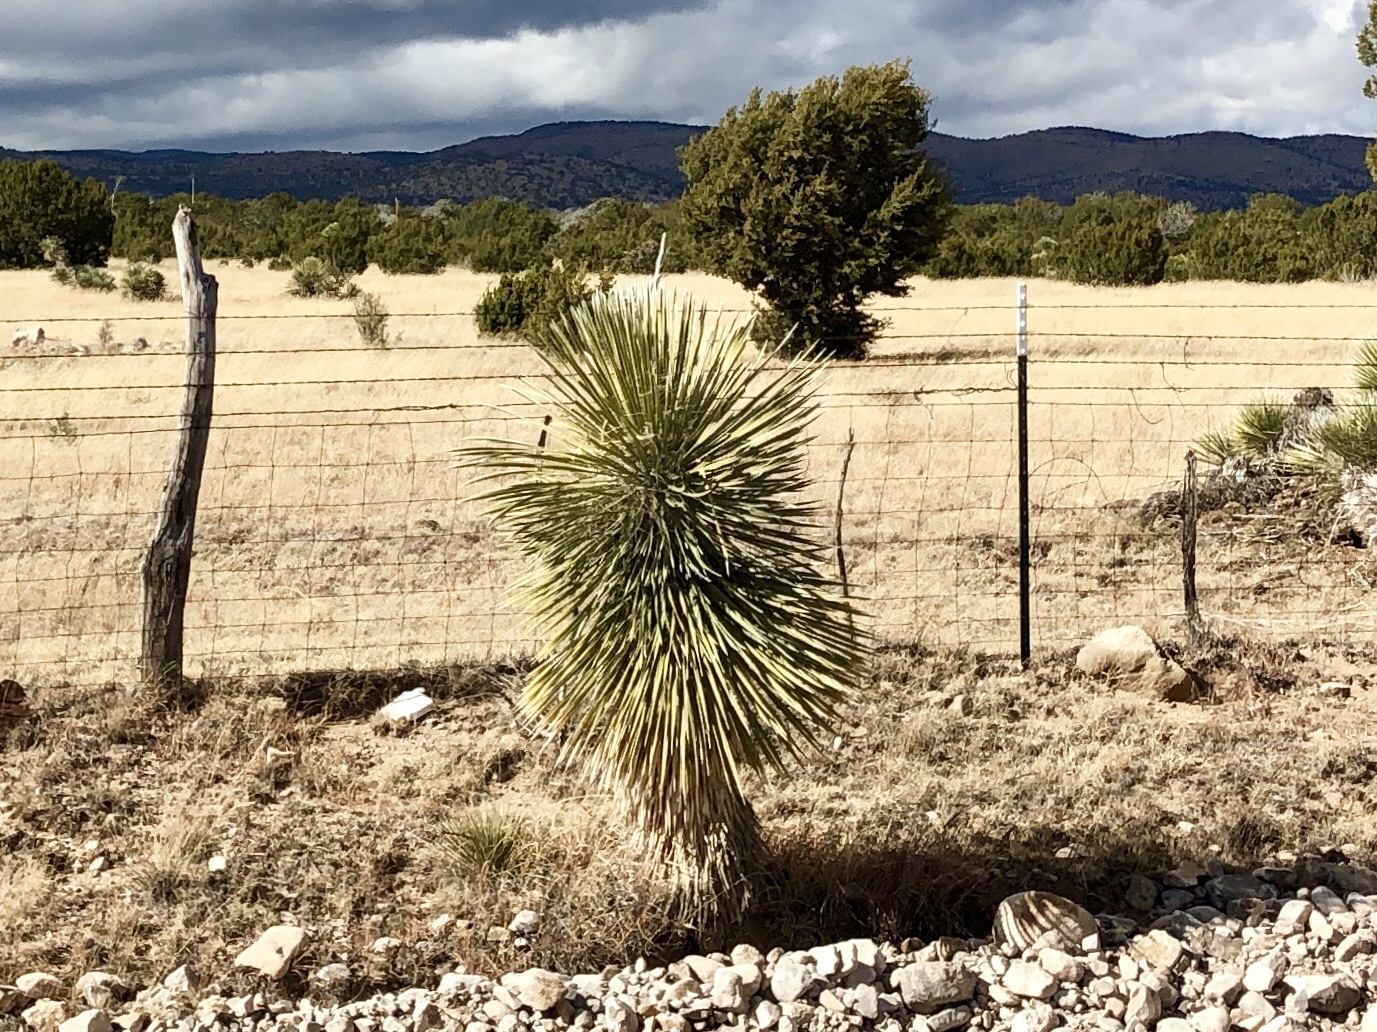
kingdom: Plantae
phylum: Tracheophyta
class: Liliopsida
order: Asparagales
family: Asparagaceae
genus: Yucca
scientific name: Yucca elata
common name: Palmella
